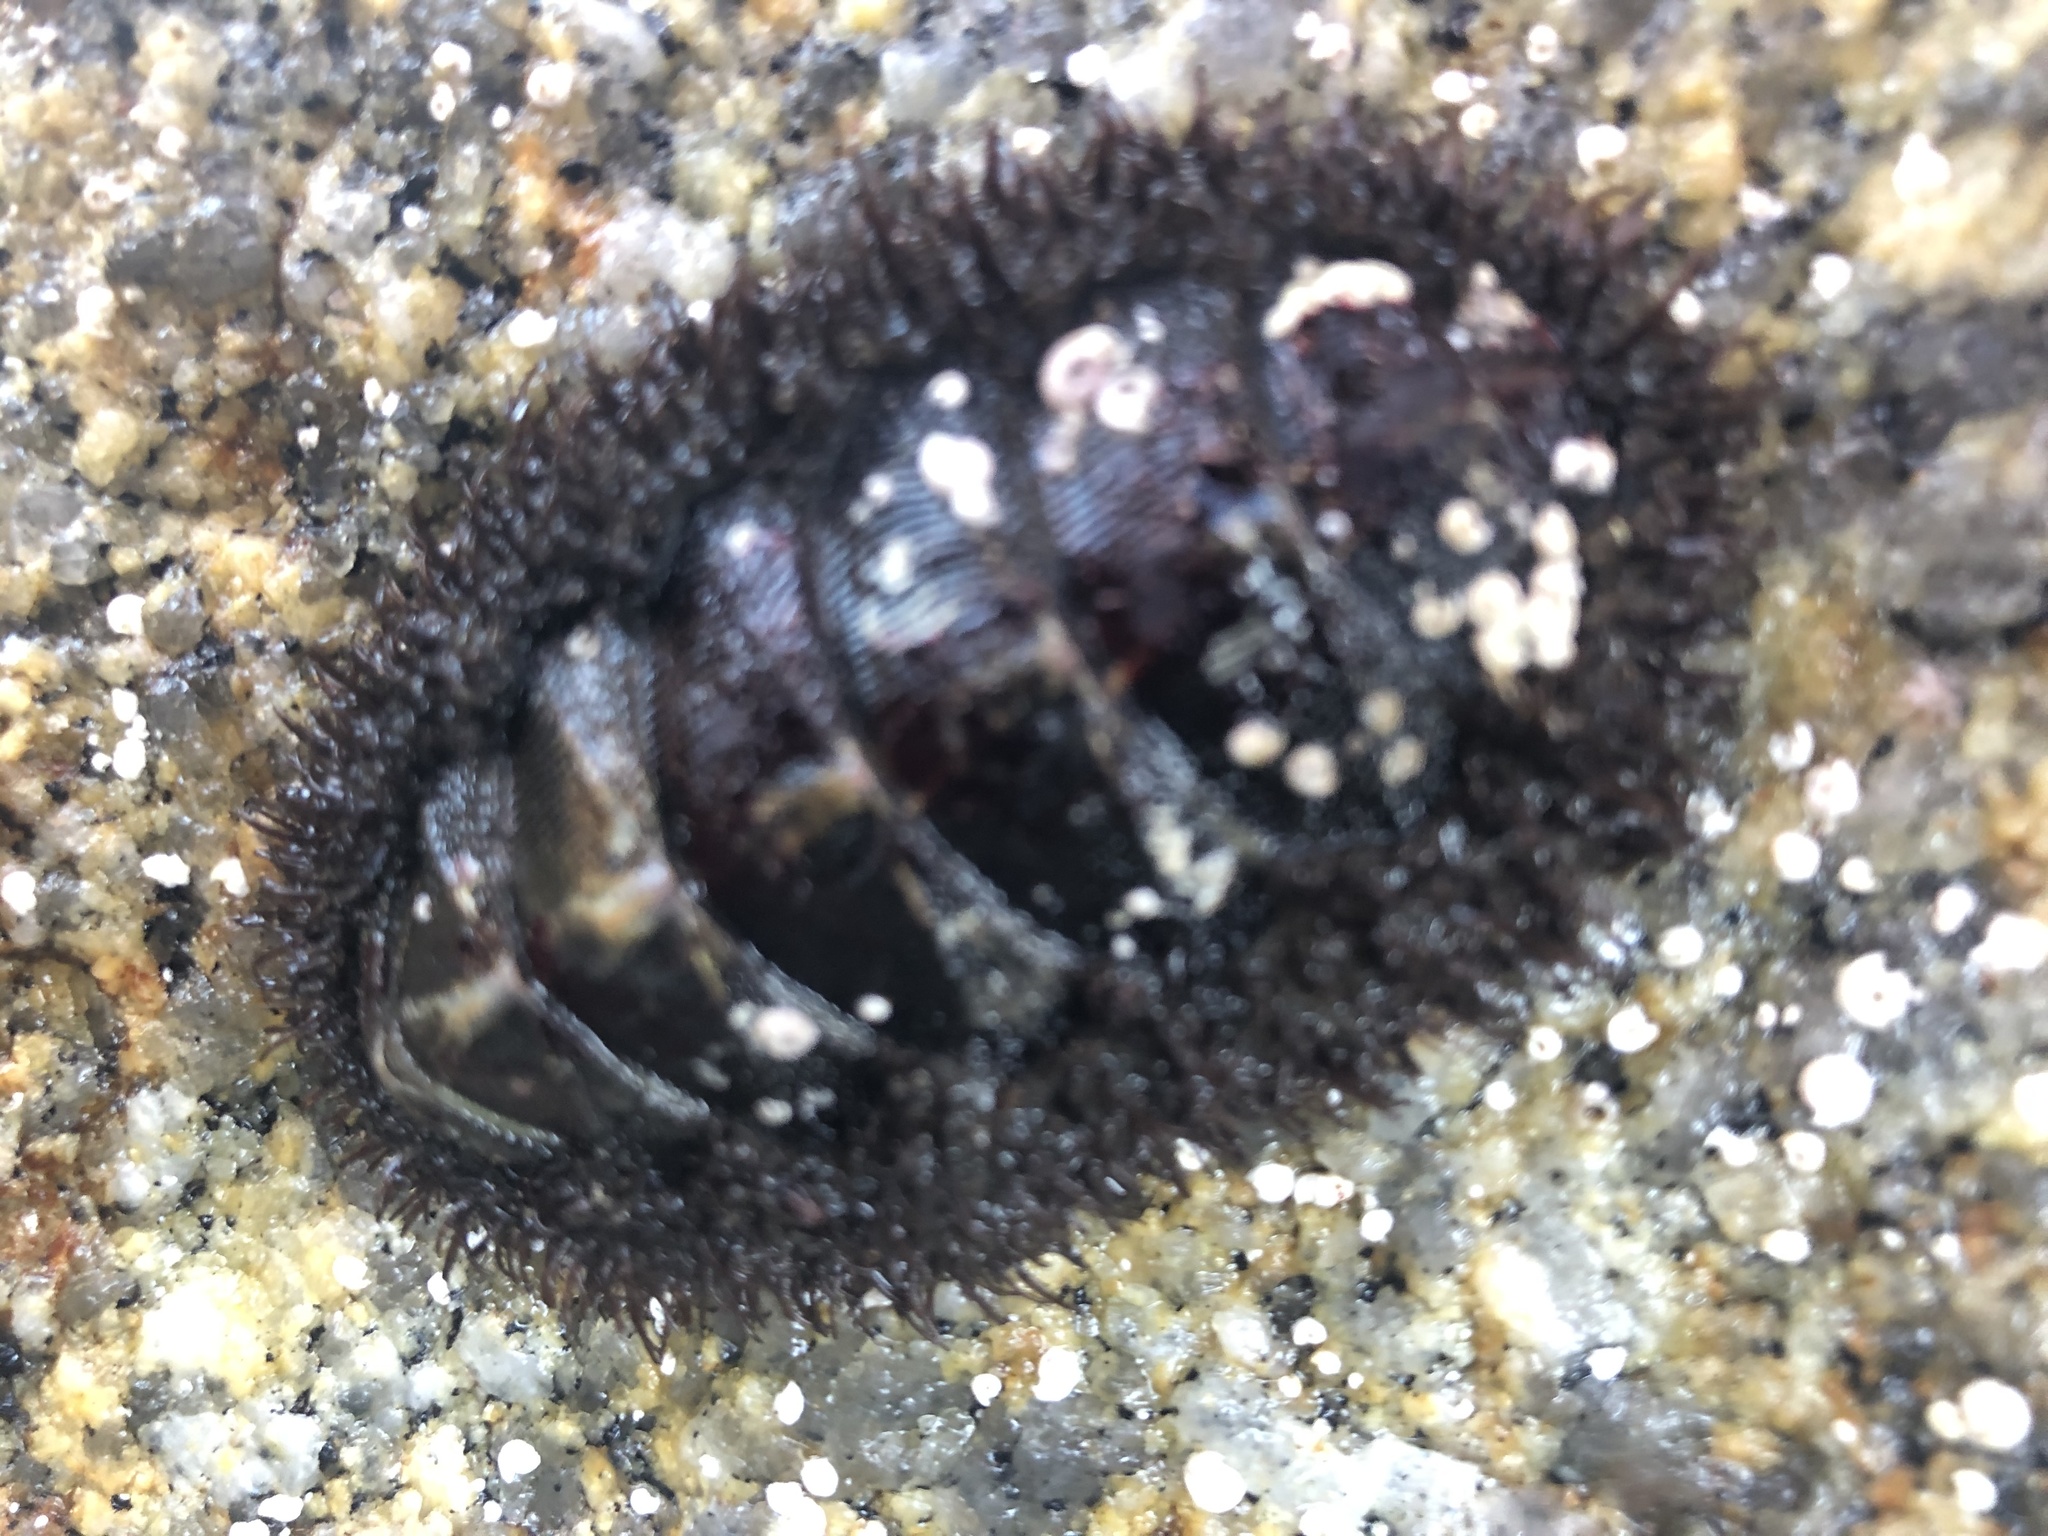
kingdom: Animalia
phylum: Mollusca
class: Polyplacophora
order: Chitonida
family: Mopaliidae
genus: Mopalia
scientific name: Mopalia muscosa
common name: Mossy chiton
